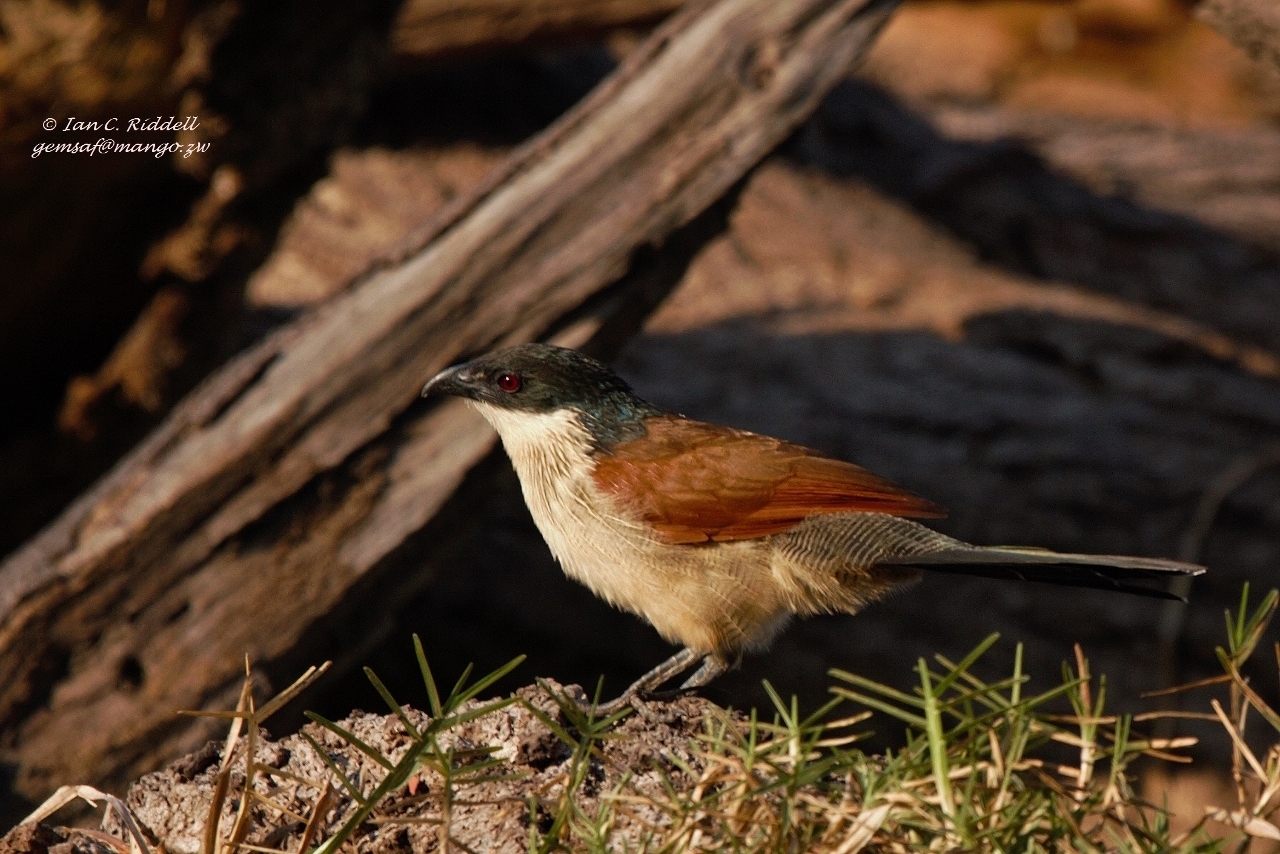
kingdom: Animalia
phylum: Chordata
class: Aves
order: Cuculiformes
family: Cuculidae
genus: Centropus
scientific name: Centropus superciliosus
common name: White-browed coucal
